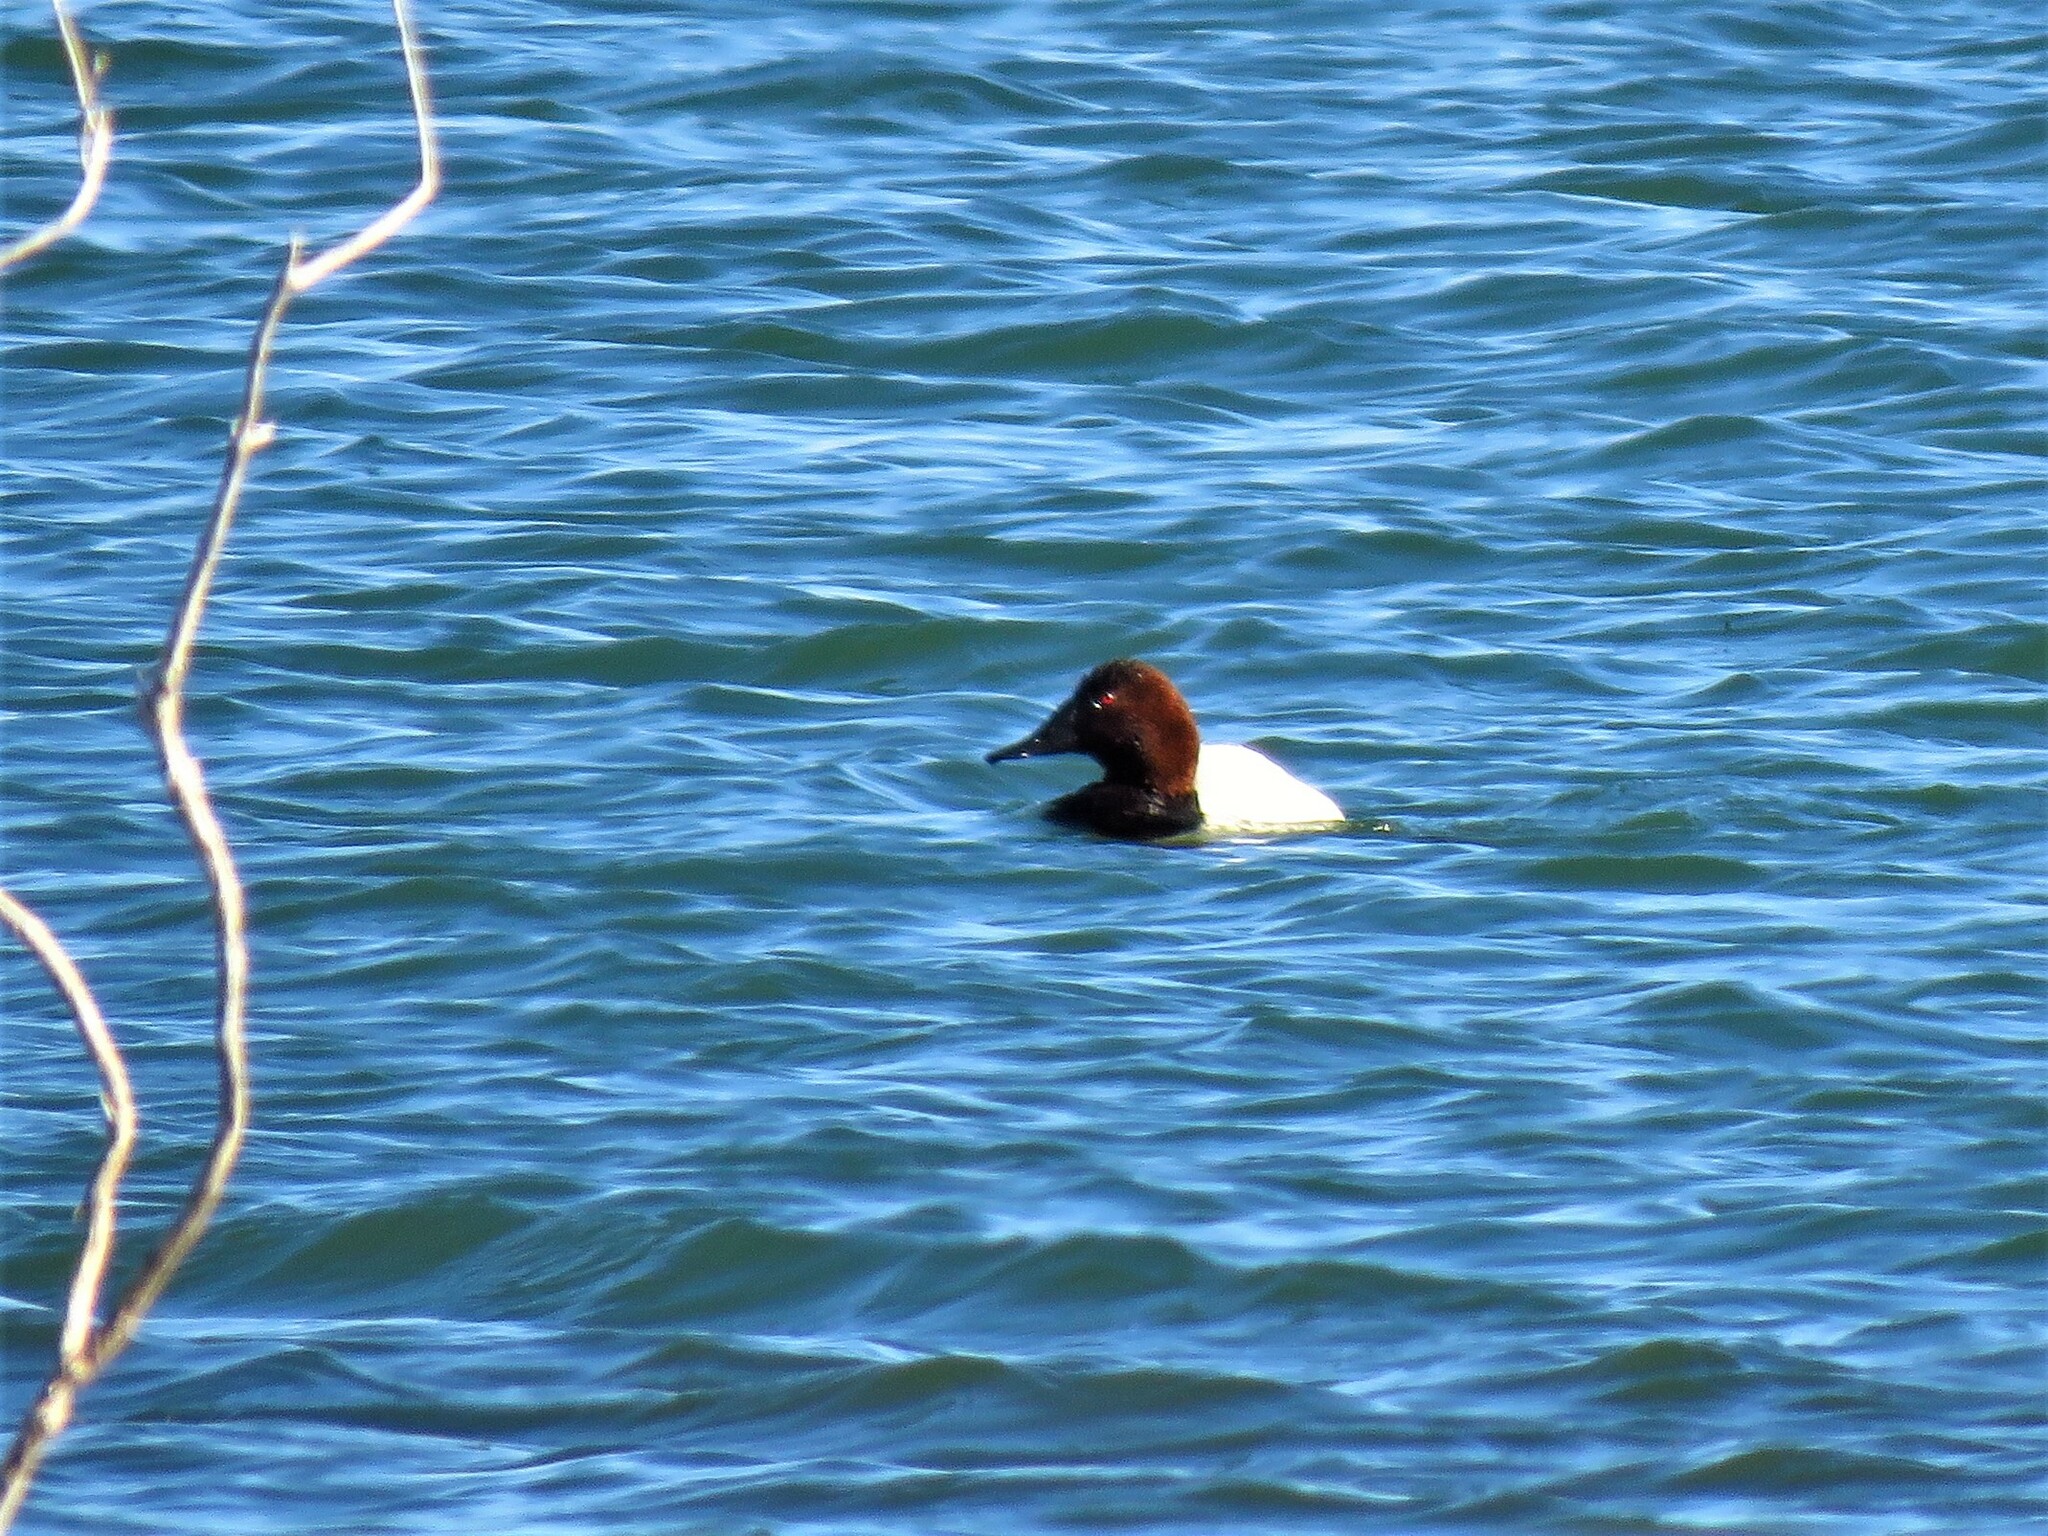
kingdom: Animalia
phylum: Chordata
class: Aves
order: Anseriformes
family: Anatidae
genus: Aythya
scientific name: Aythya valisineria
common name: Canvasback
